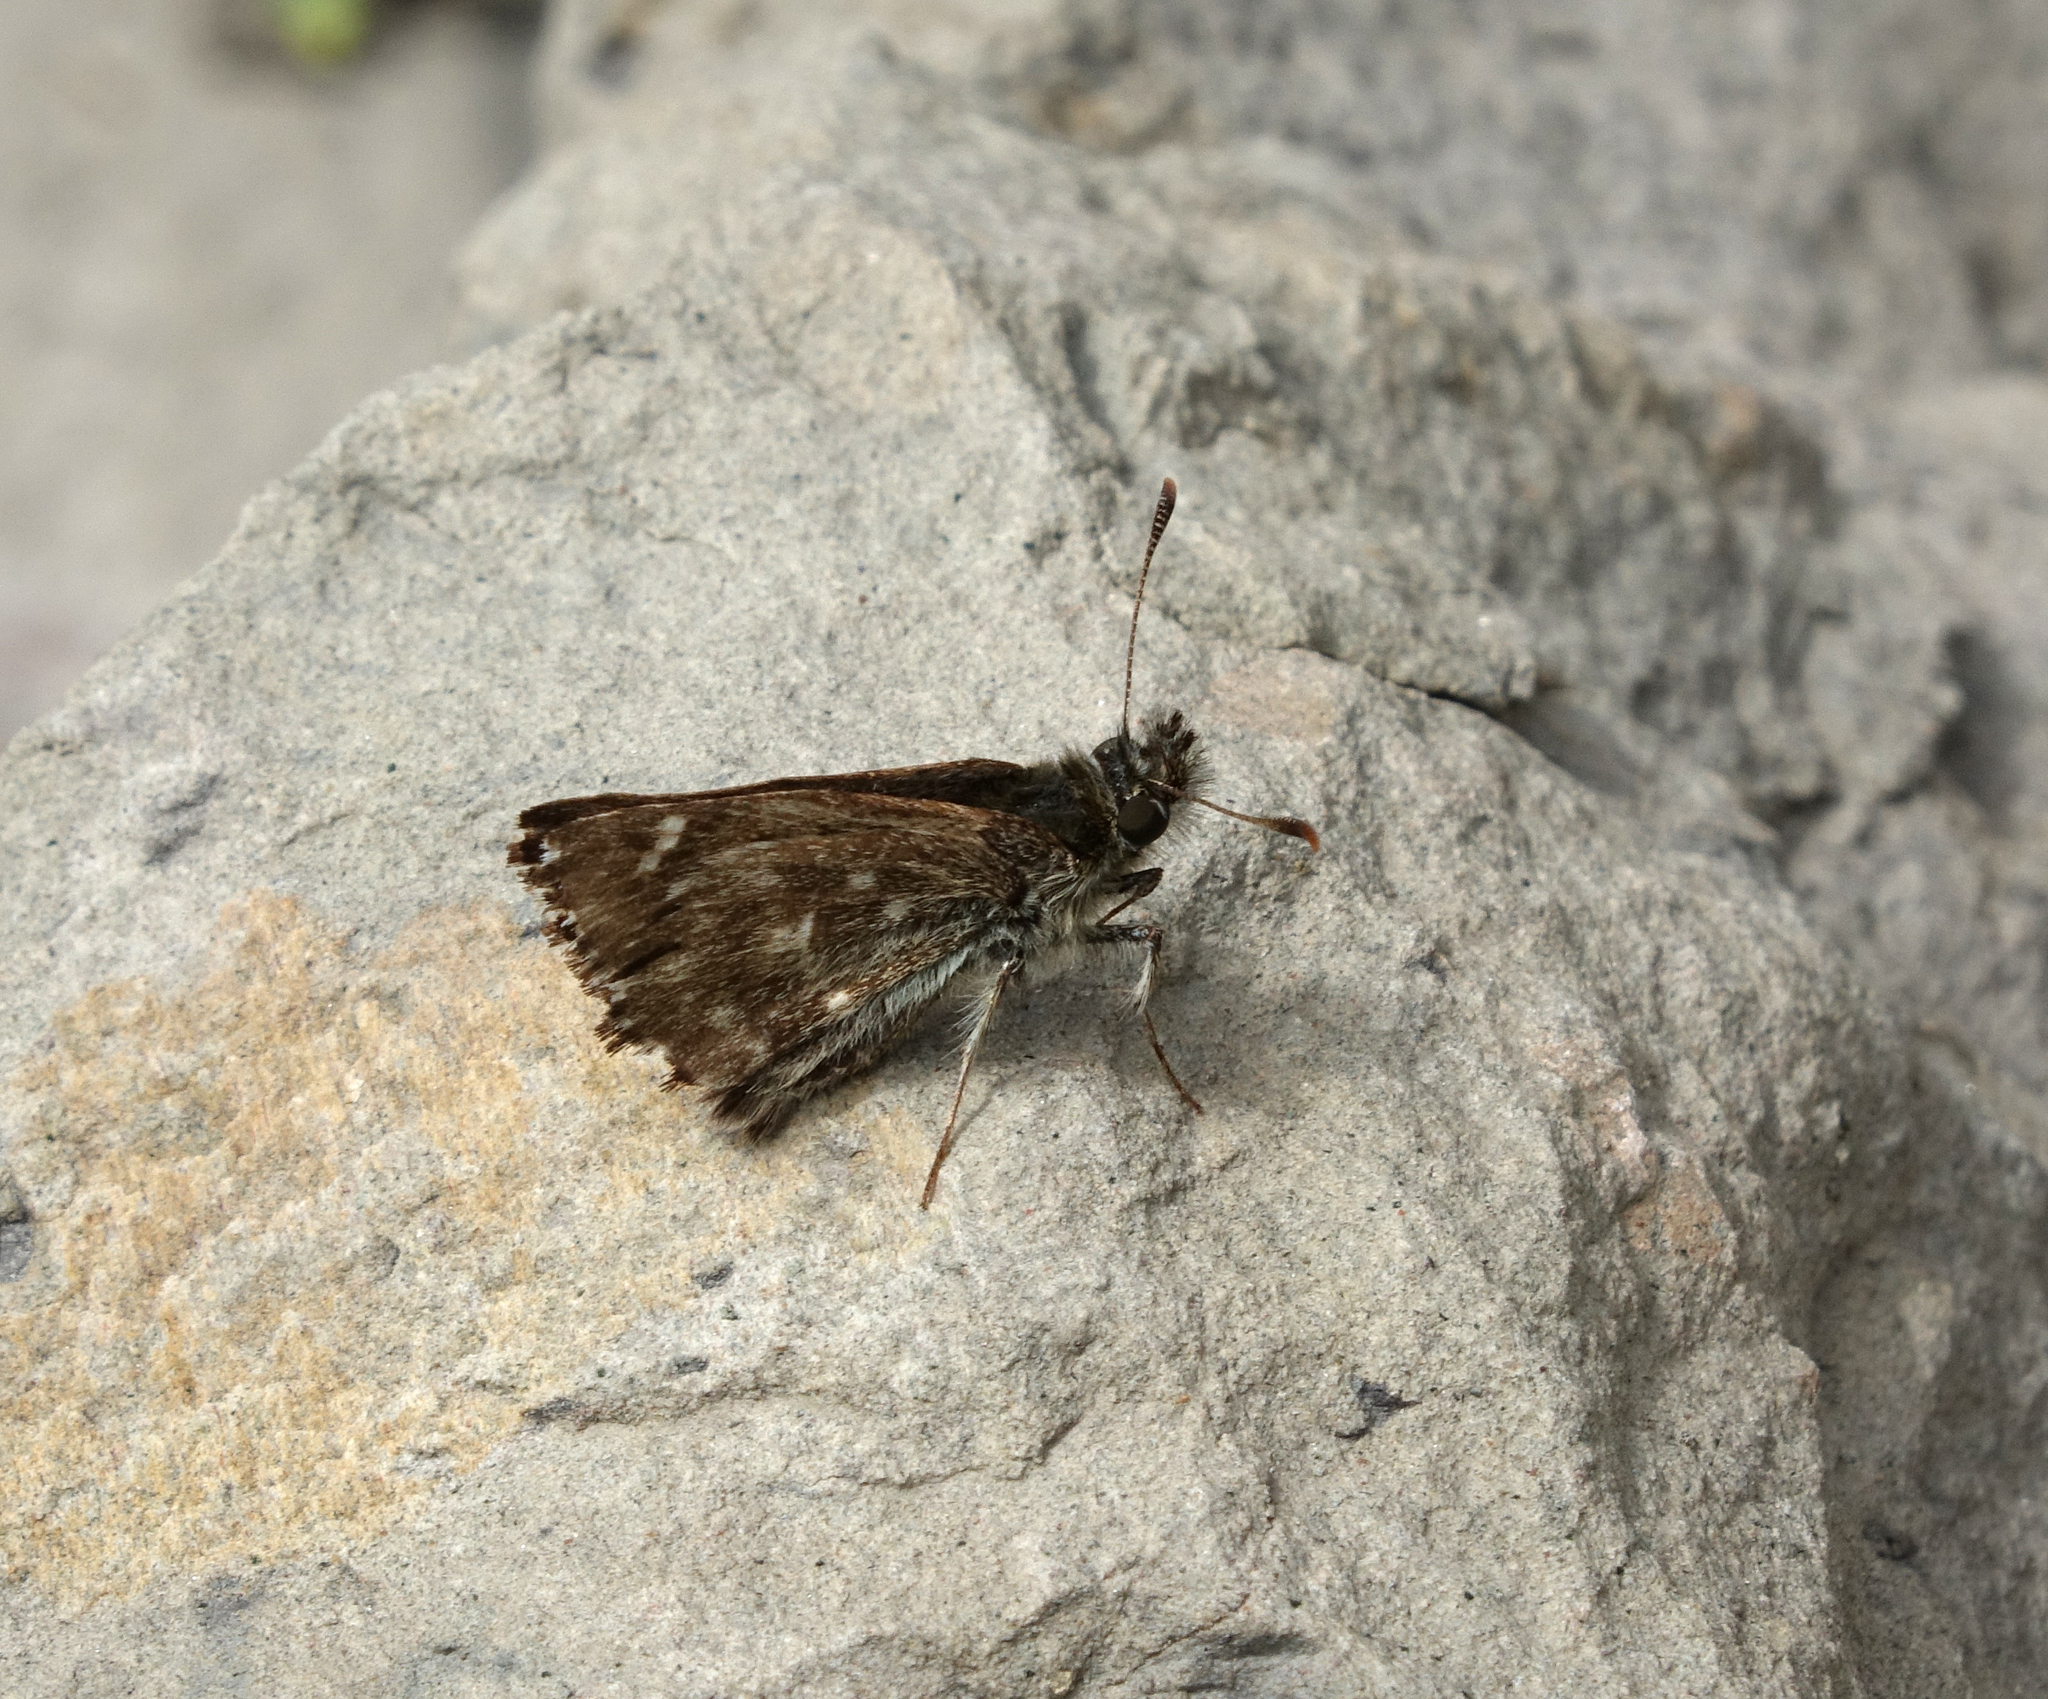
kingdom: Animalia
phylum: Arthropoda
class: Insecta
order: Lepidoptera
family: Hesperiidae
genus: Carcharodus
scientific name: Carcharodus alceae
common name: Mallow skipper
